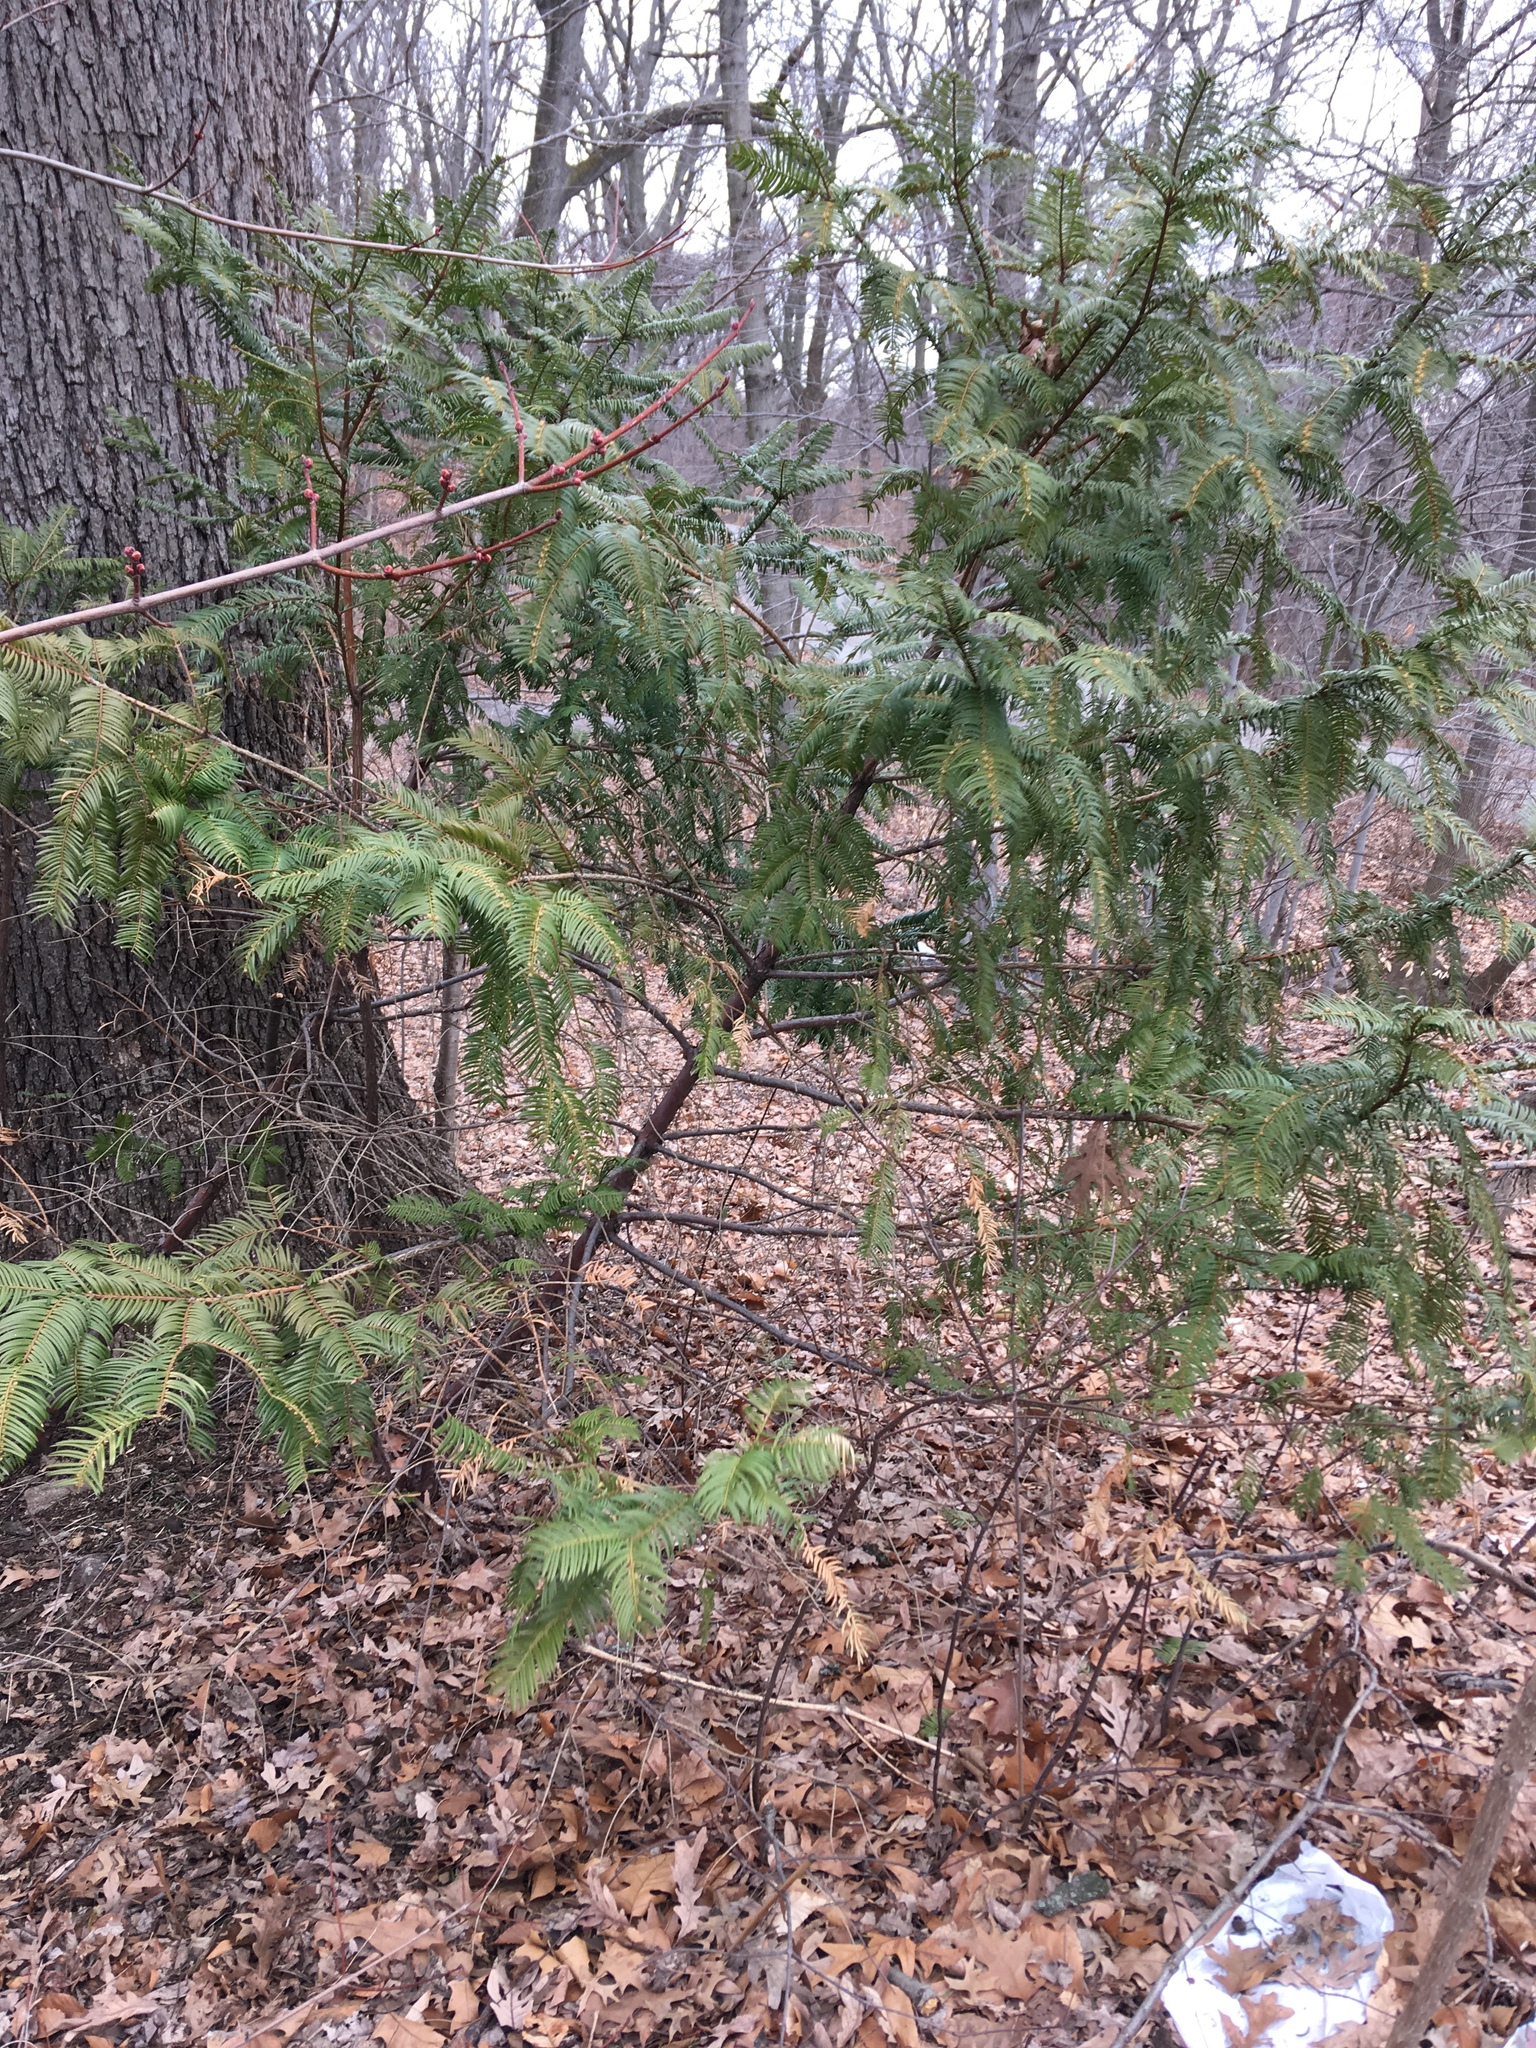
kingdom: Plantae
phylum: Tracheophyta
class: Pinopsida
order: Pinales
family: Cephalotaxaceae
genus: Cephalotaxus
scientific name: Cephalotaxus harringtonia
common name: Japanese plum-yew
